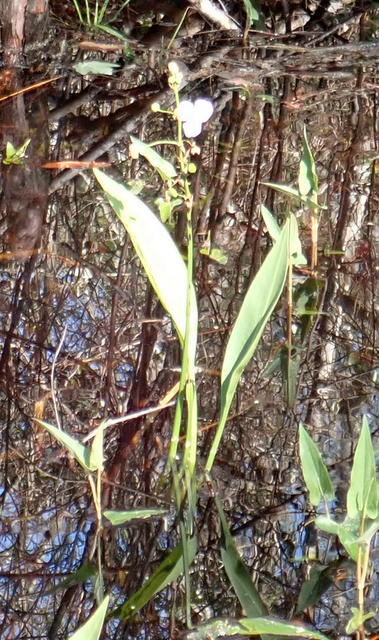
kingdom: Plantae
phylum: Tracheophyta
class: Liliopsida
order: Alismatales
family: Alismataceae
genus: Sagittaria
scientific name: Sagittaria lancifolia
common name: Lance-leaf arrowhead
